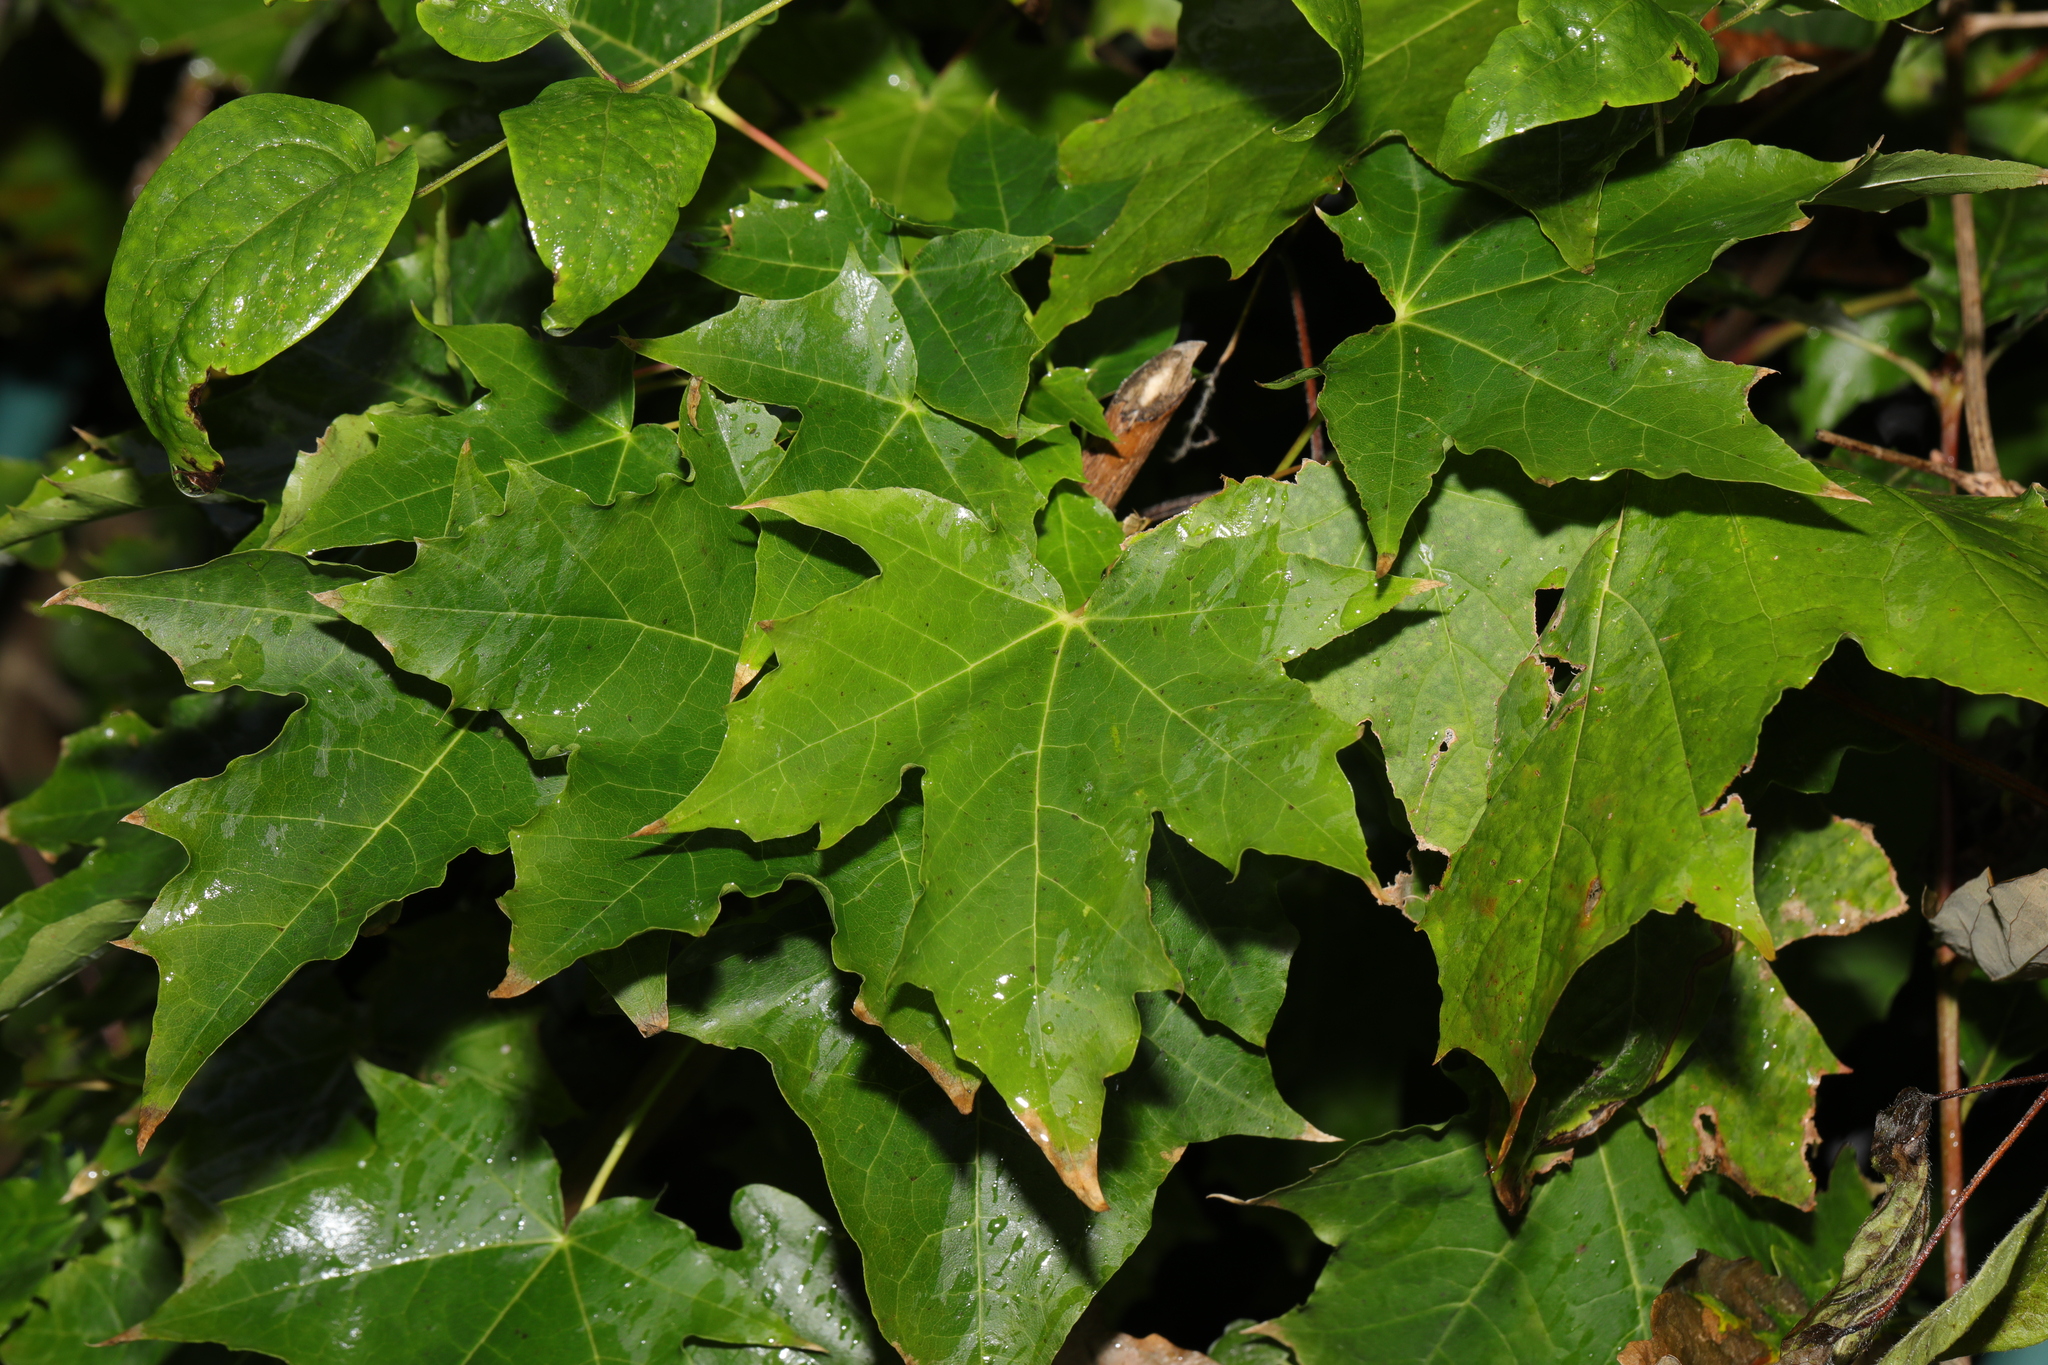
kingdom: Plantae
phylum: Tracheophyta
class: Magnoliopsida
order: Sapindales
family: Sapindaceae
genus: Acer
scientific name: Acer platanoides
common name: Norway maple
